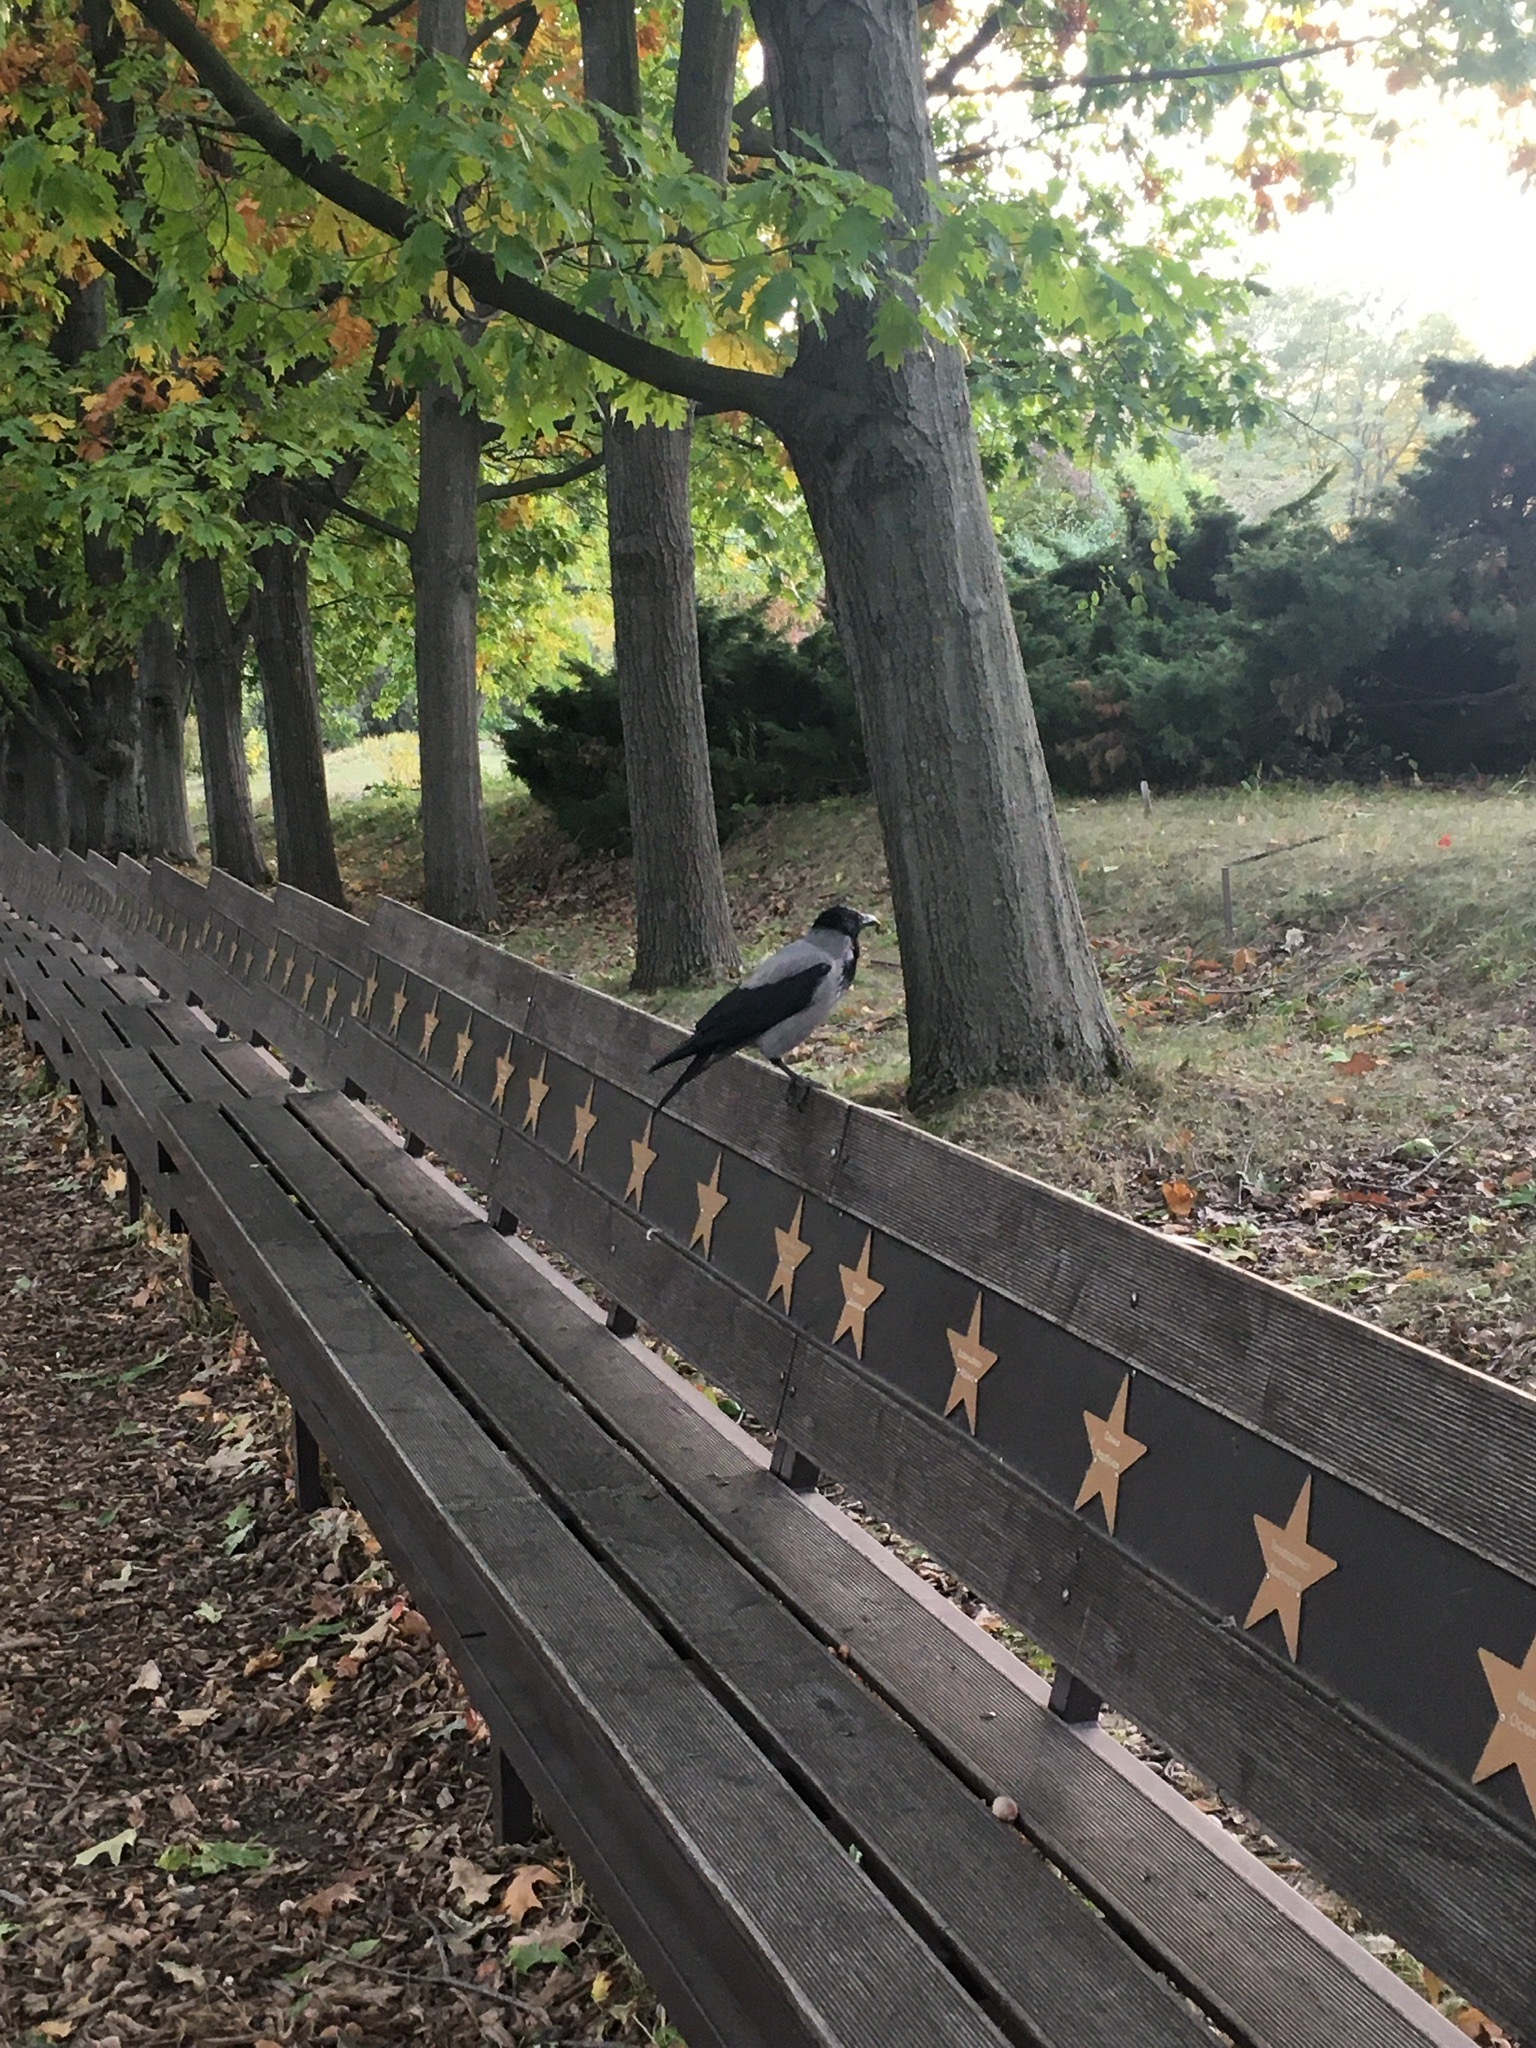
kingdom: Animalia
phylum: Chordata
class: Aves
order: Passeriformes
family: Corvidae
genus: Corvus
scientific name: Corvus cornix
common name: Hooded crow
